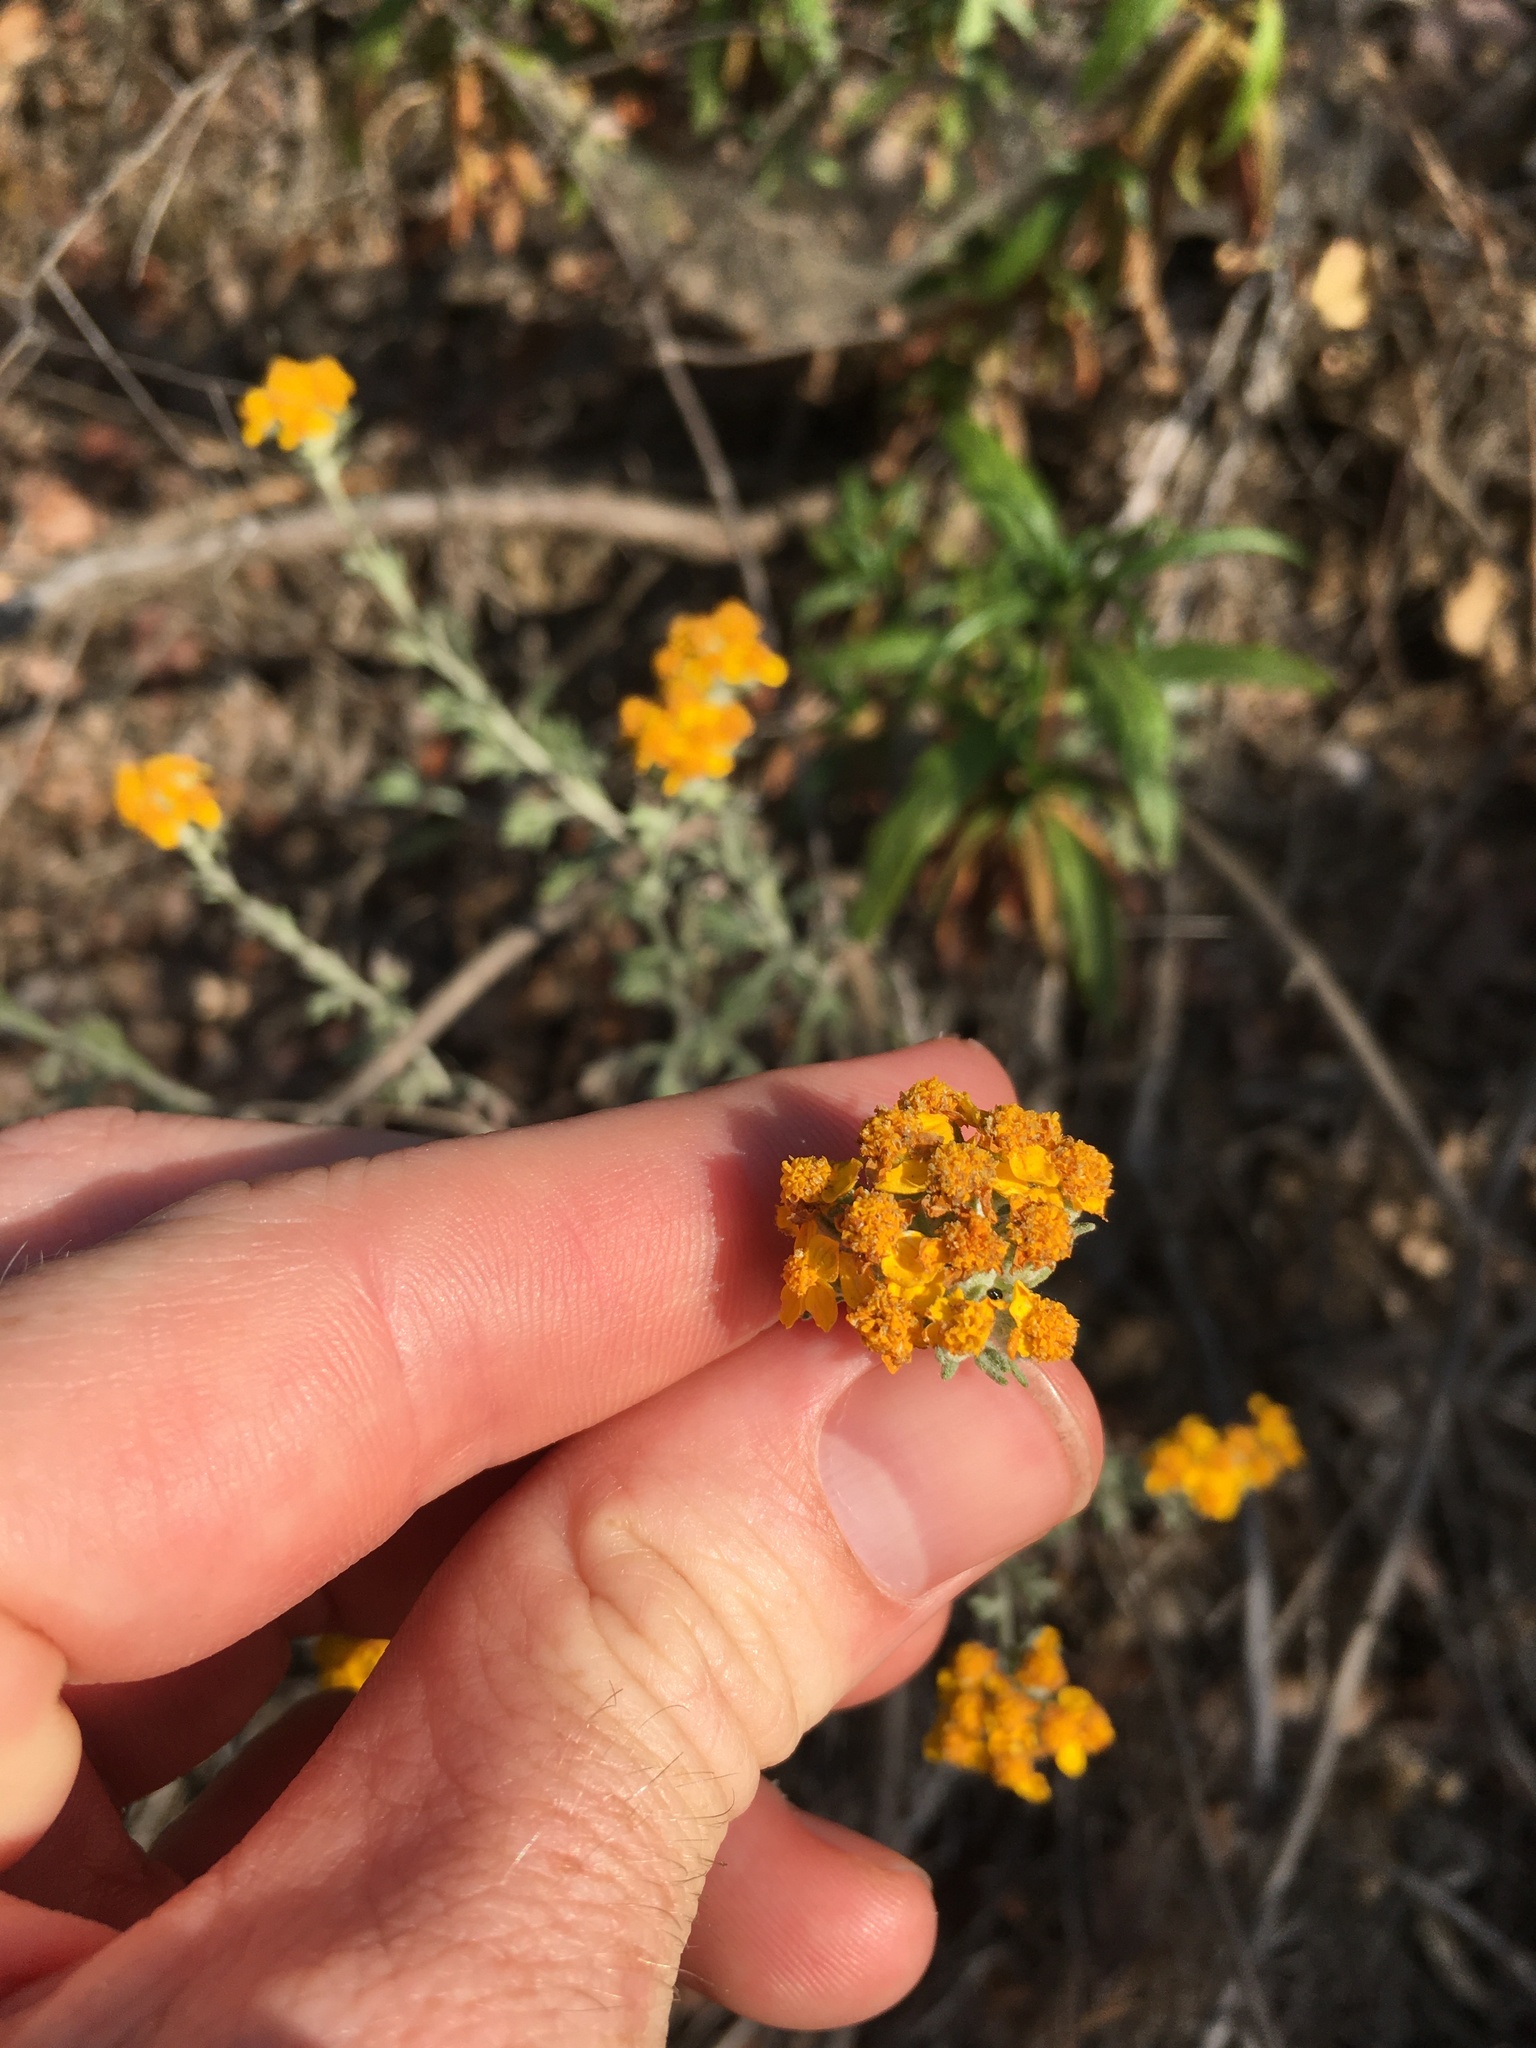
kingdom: Plantae
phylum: Tracheophyta
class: Magnoliopsida
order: Asterales
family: Asteraceae
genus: Eriophyllum
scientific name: Eriophyllum confertiflorum
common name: Golden-yarrow
